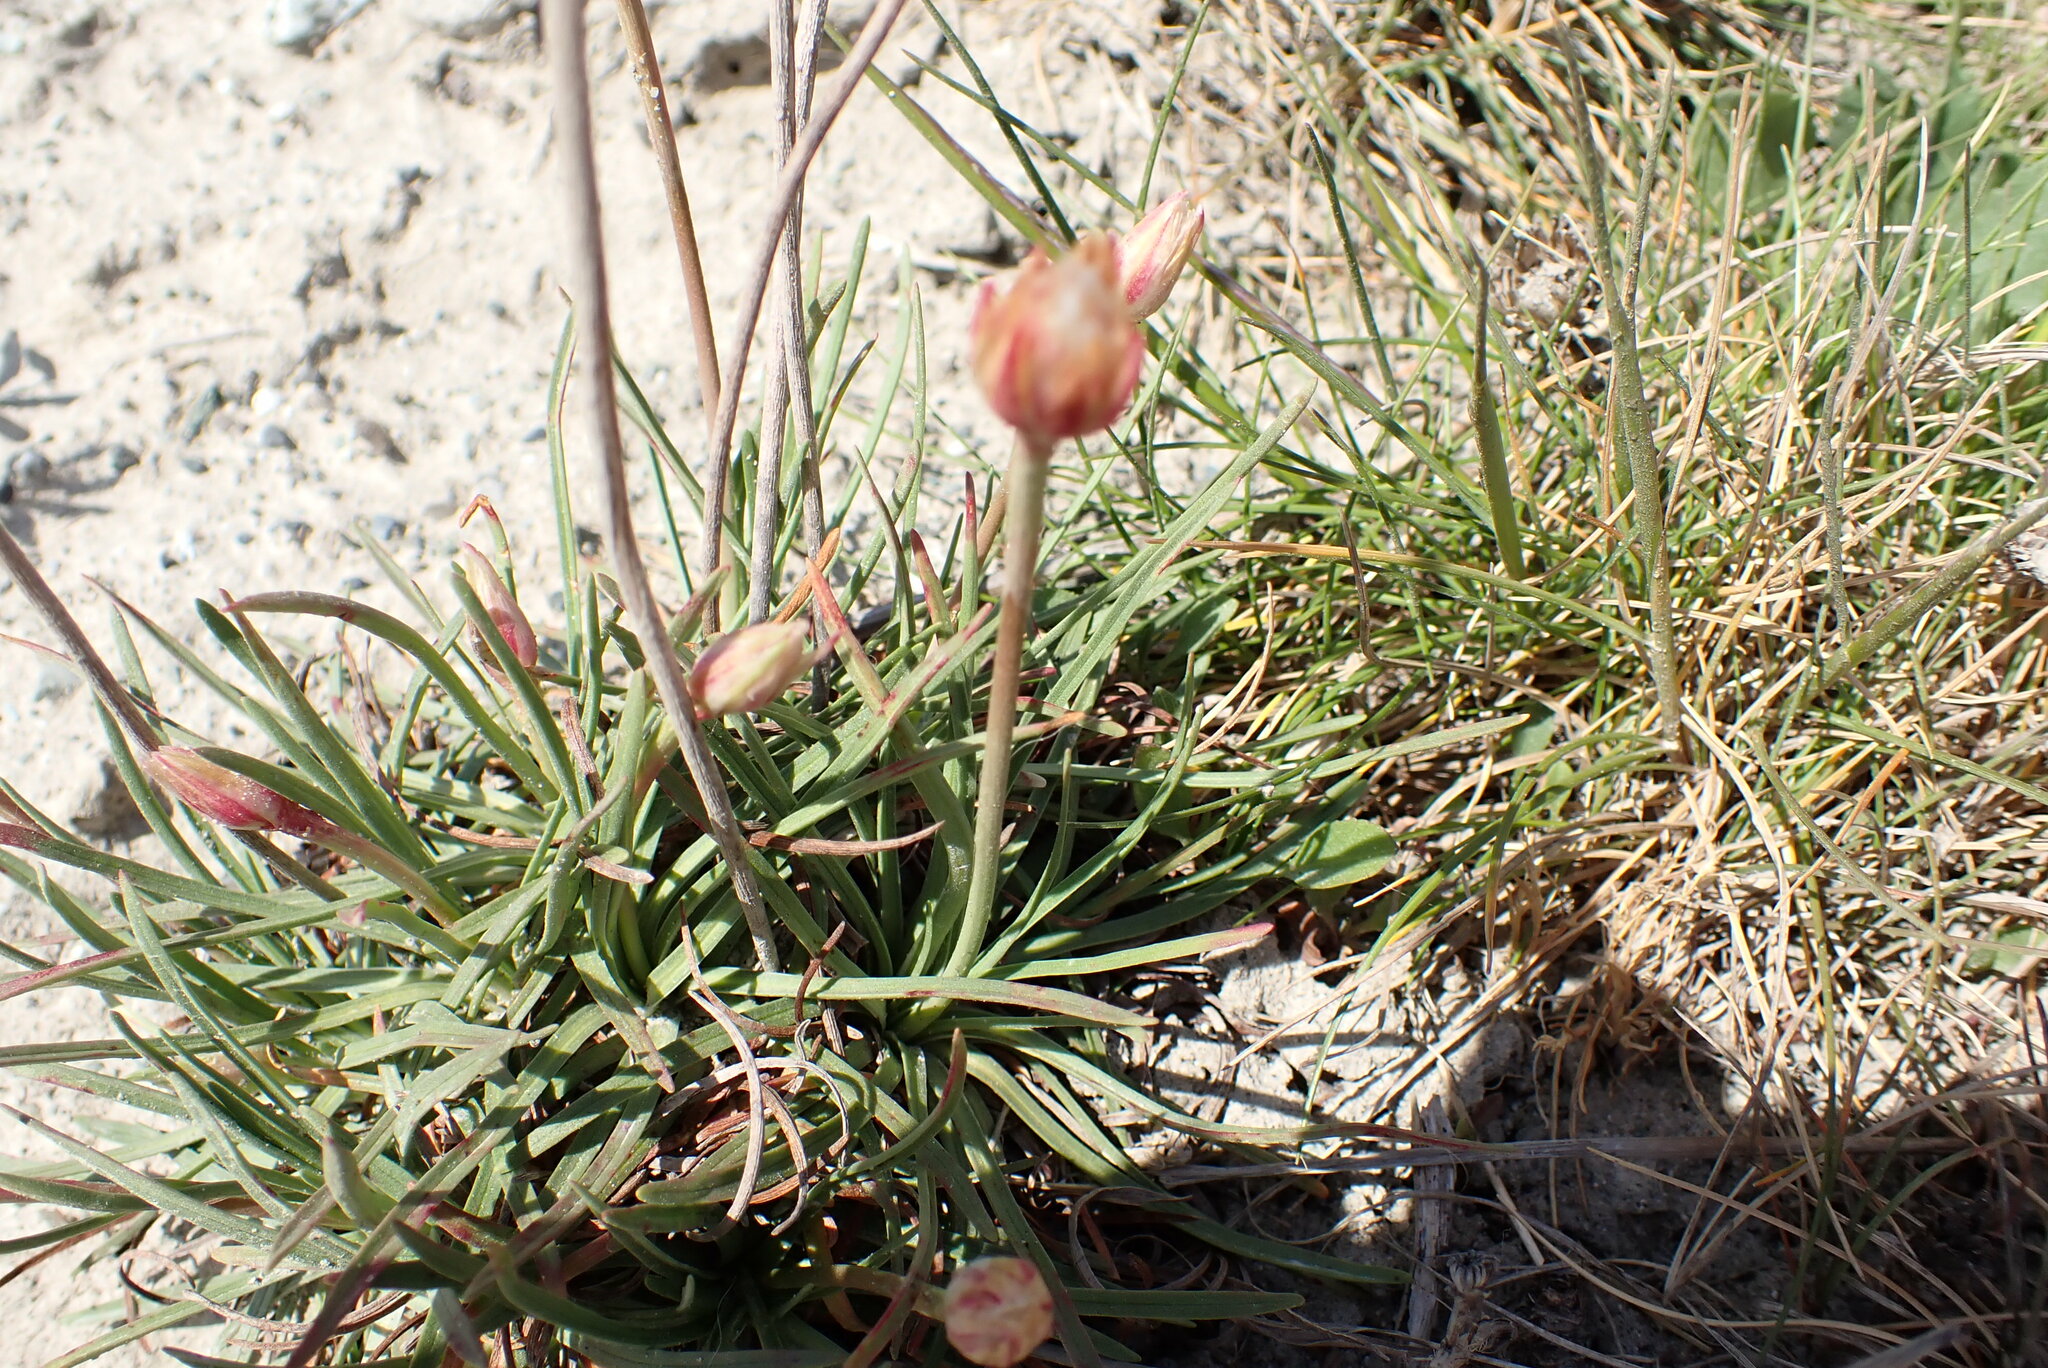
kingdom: Plantae
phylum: Tracheophyta
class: Magnoliopsida
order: Caryophyllales
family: Plumbaginaceae
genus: Armeria
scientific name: Armeria maritima
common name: Thrift
